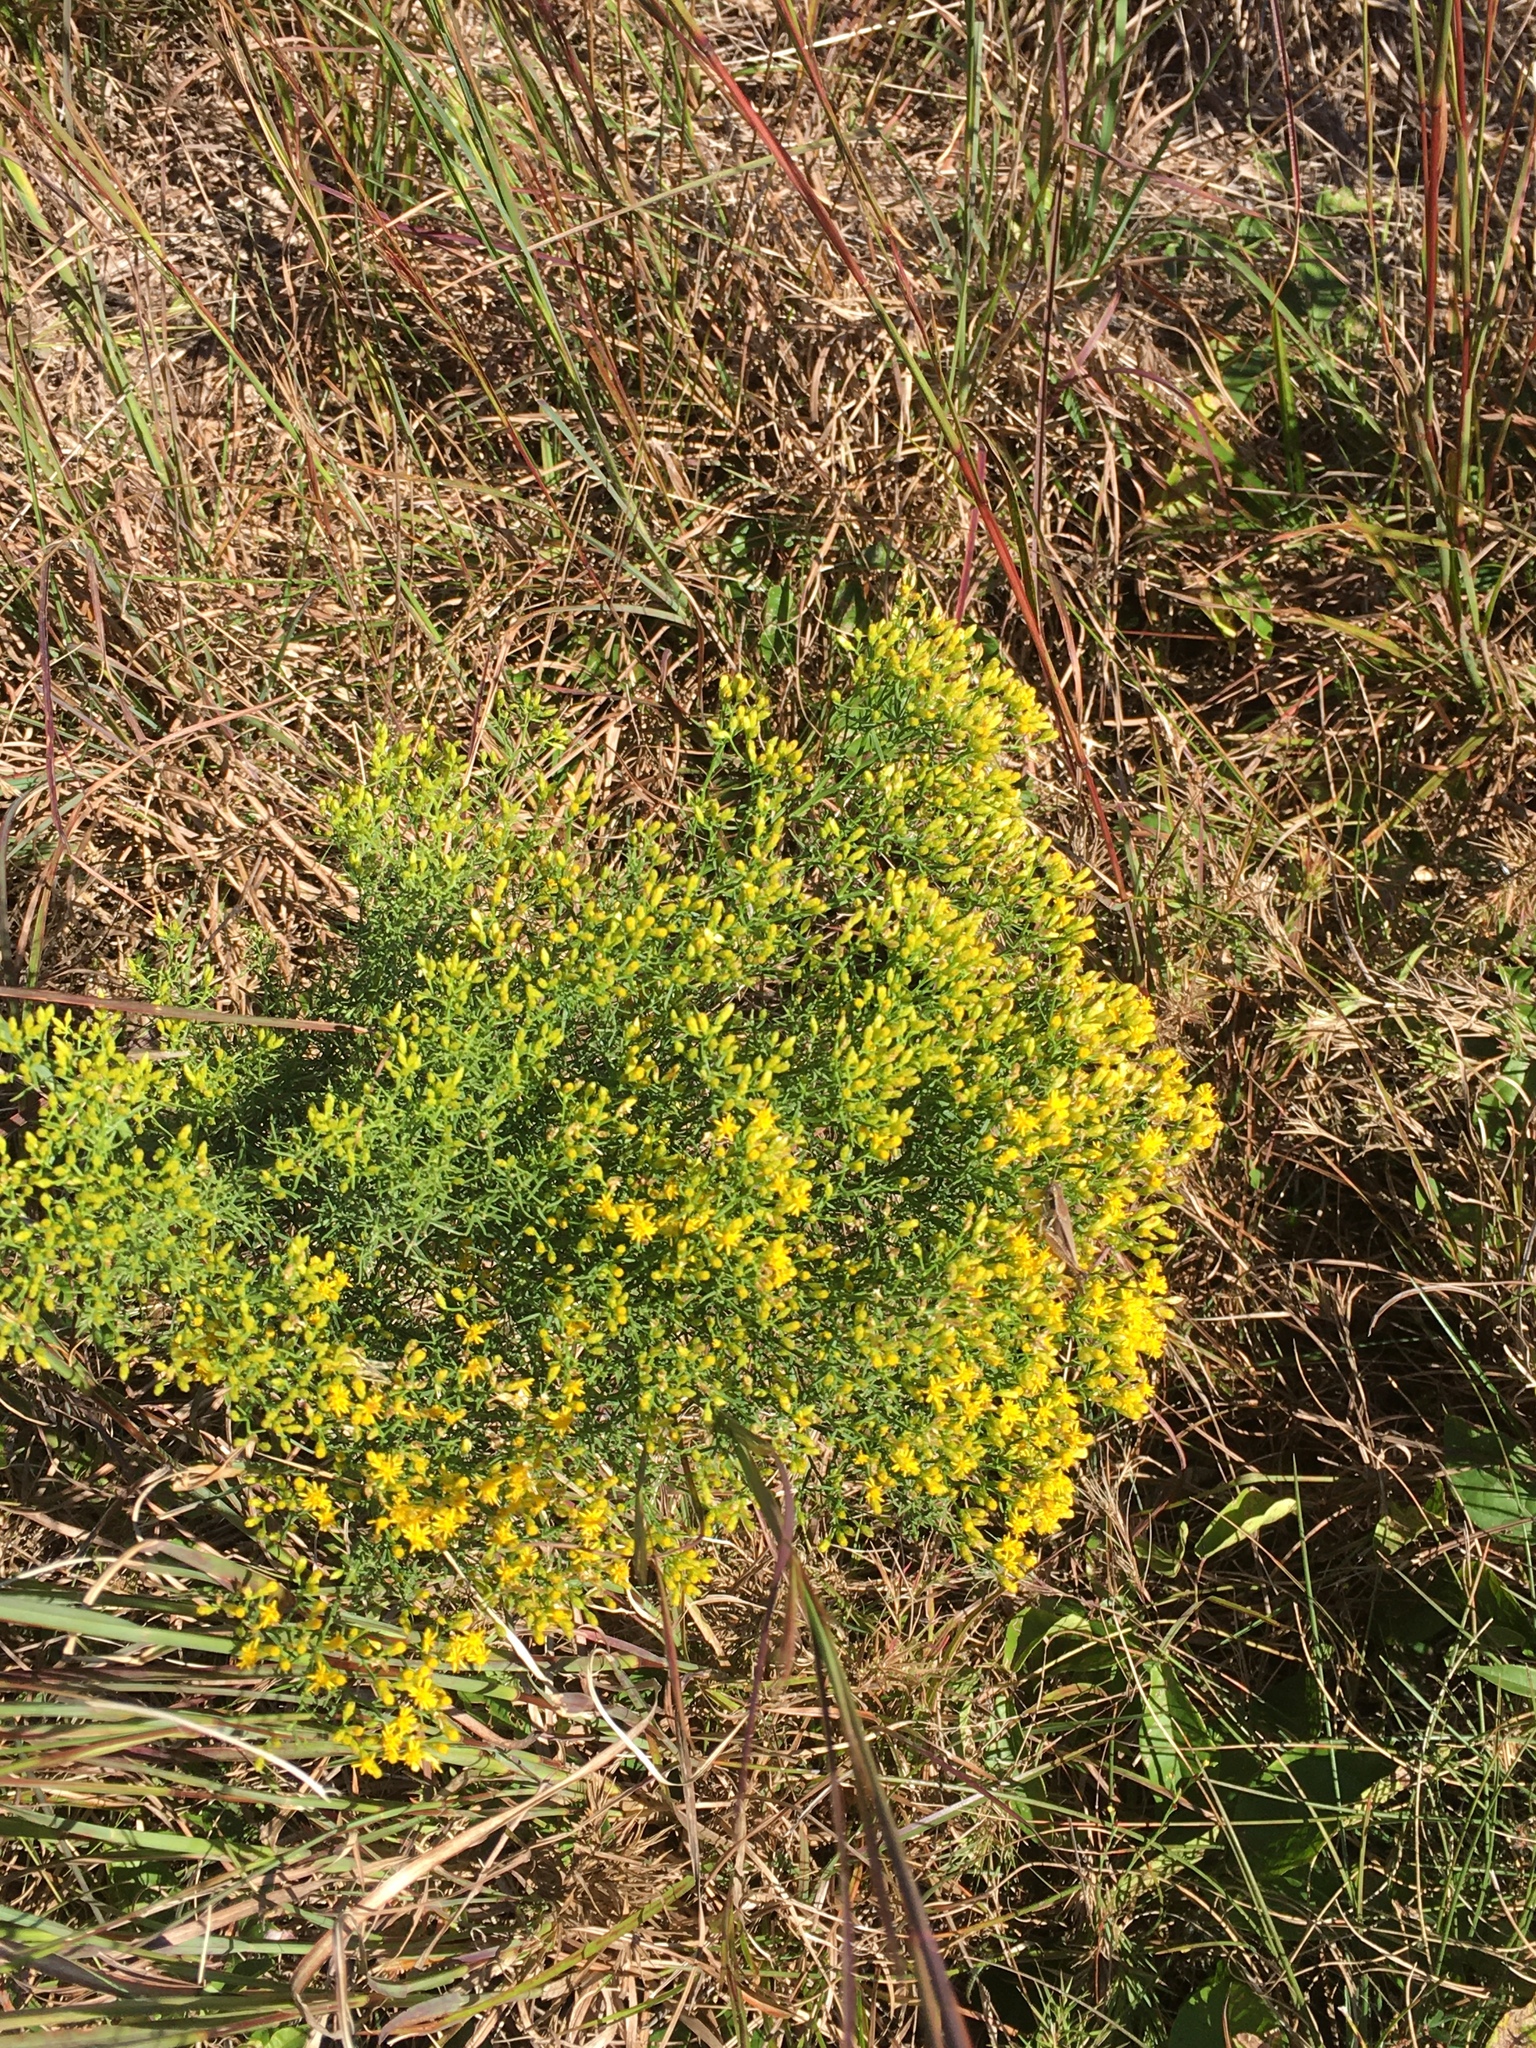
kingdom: Plantae
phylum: Tracheophyta
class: Magnoliopsida
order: Asterales
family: Asteraceae
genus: Euthamia
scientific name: Euthamia caroliniana
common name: Coastal plain goldentop
